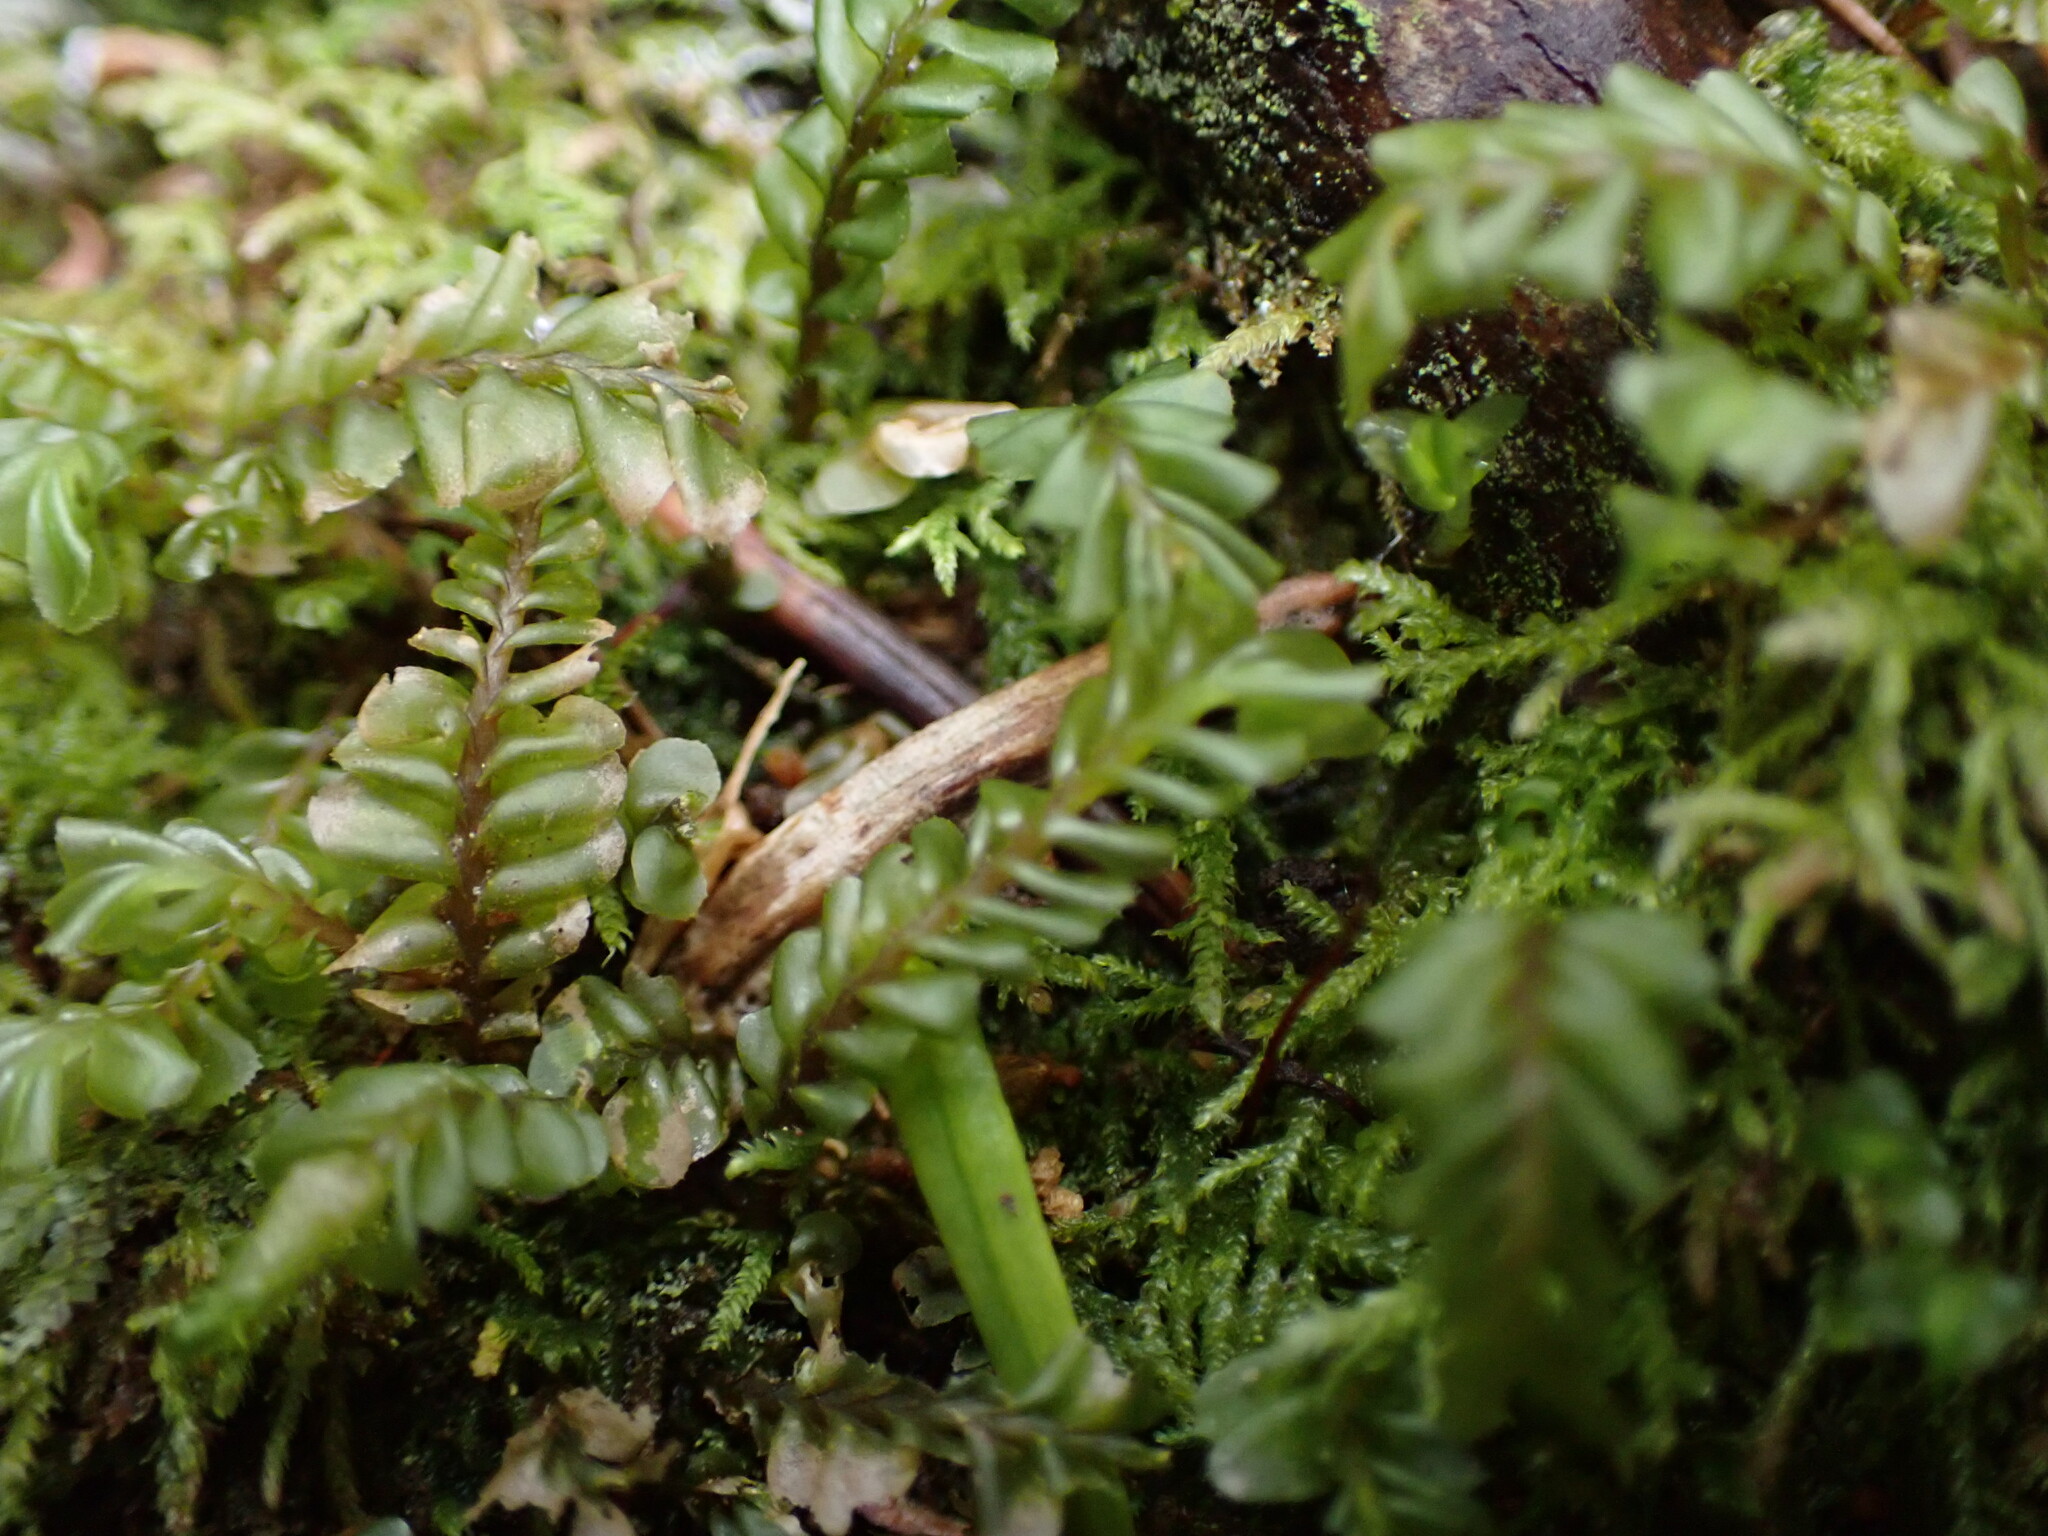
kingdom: Plantae
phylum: Marchantiophyta
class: Jungermanniopsida
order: Jungermanniales
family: Plagiochilaceae
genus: Plagiochila
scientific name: Plagiochila porelloides
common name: Lesser featherwort
